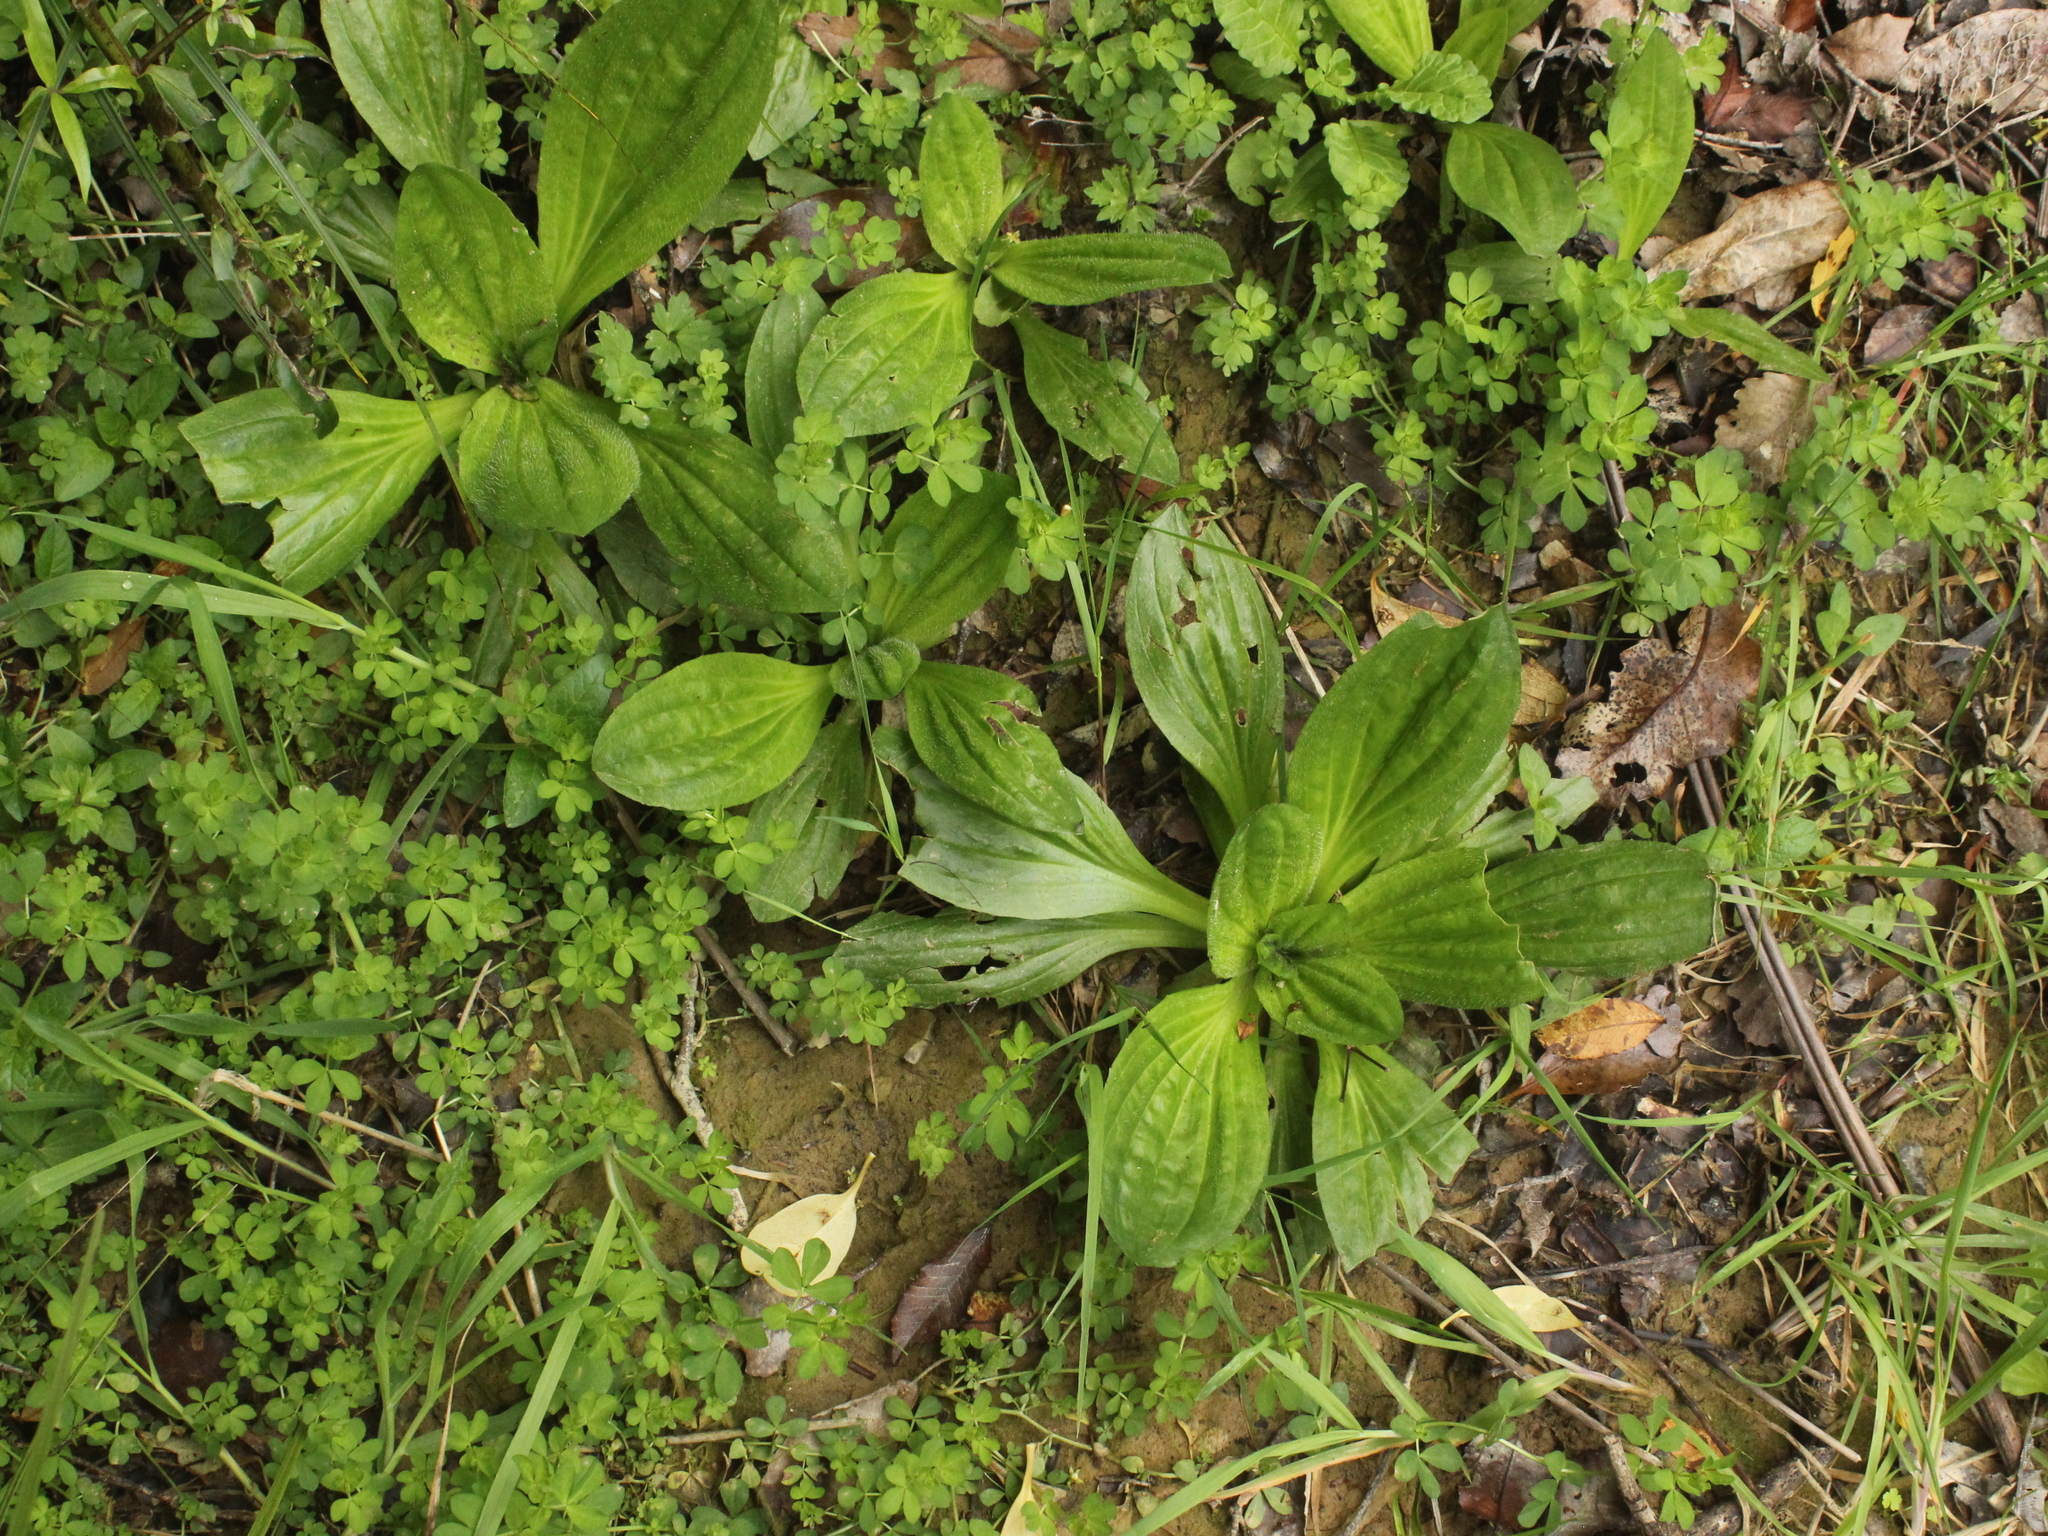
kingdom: Plantae
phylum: Tracheophyta
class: Magnoliopsida
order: Lamiales
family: Plantaginaceae
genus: Plantago
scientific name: Plantago australis
